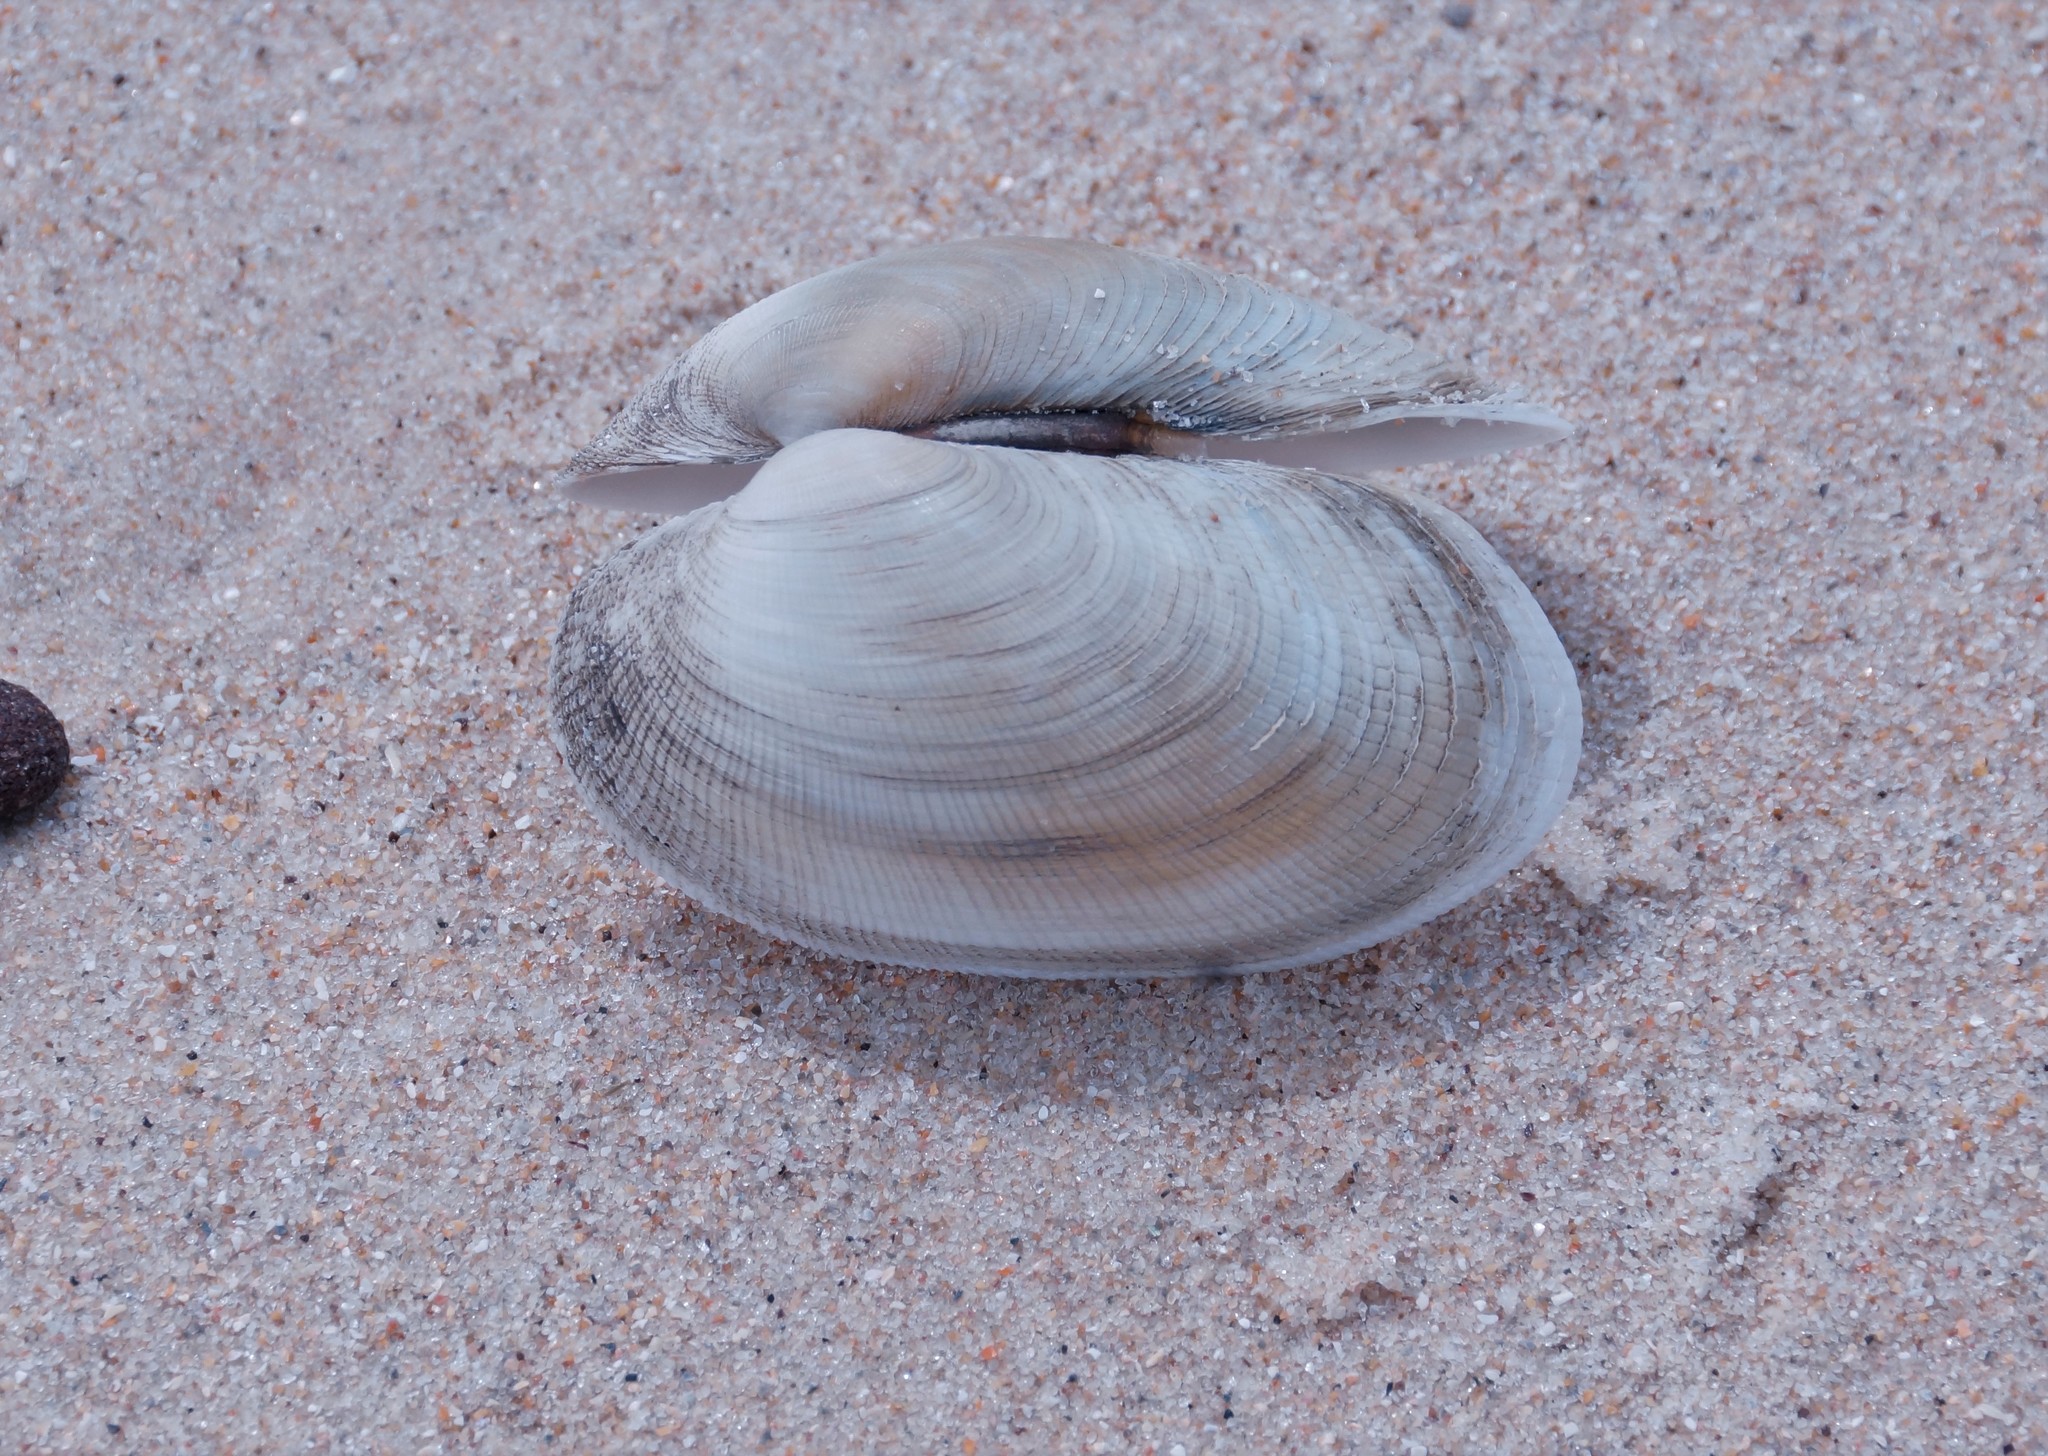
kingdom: Animalia
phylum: Mollusca
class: Bivalvia
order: Venerida
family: Veneridae
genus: Venerupis
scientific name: Venerupis galactites
